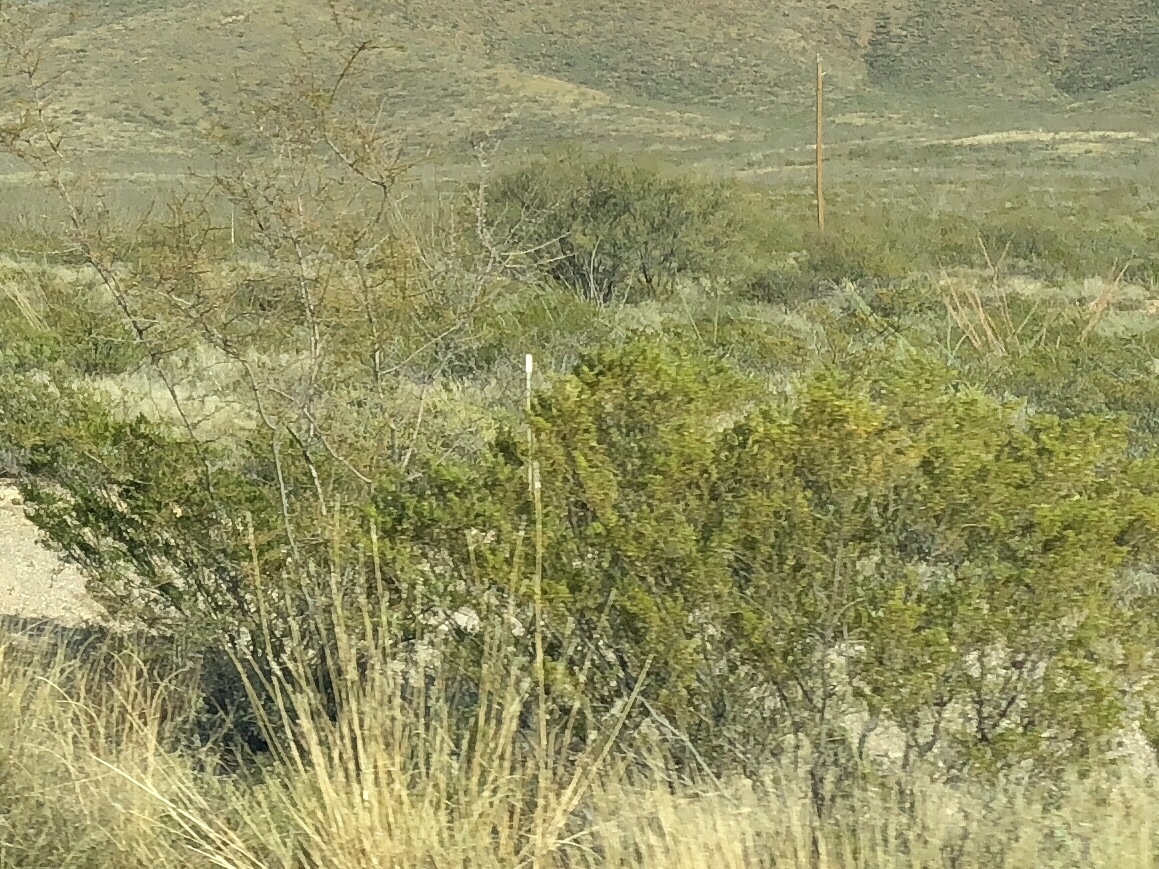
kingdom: Plantae
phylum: Tracheophyta
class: Magnoliopsida
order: Zygophyllales
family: Zygophyllaceae
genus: Larrea
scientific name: Larrea tridentata
